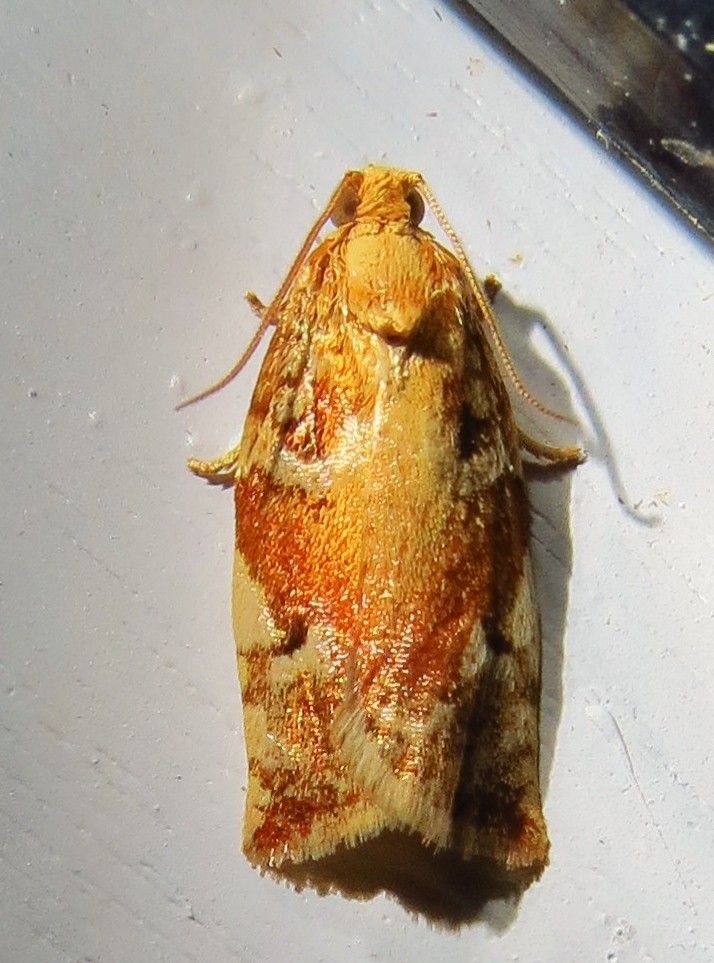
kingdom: Animalia
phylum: Arthropoda
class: Insecta
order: Lepidoptera
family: Tortricidae
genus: Archips
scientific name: Archips semiferanus
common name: Oak leafroller
